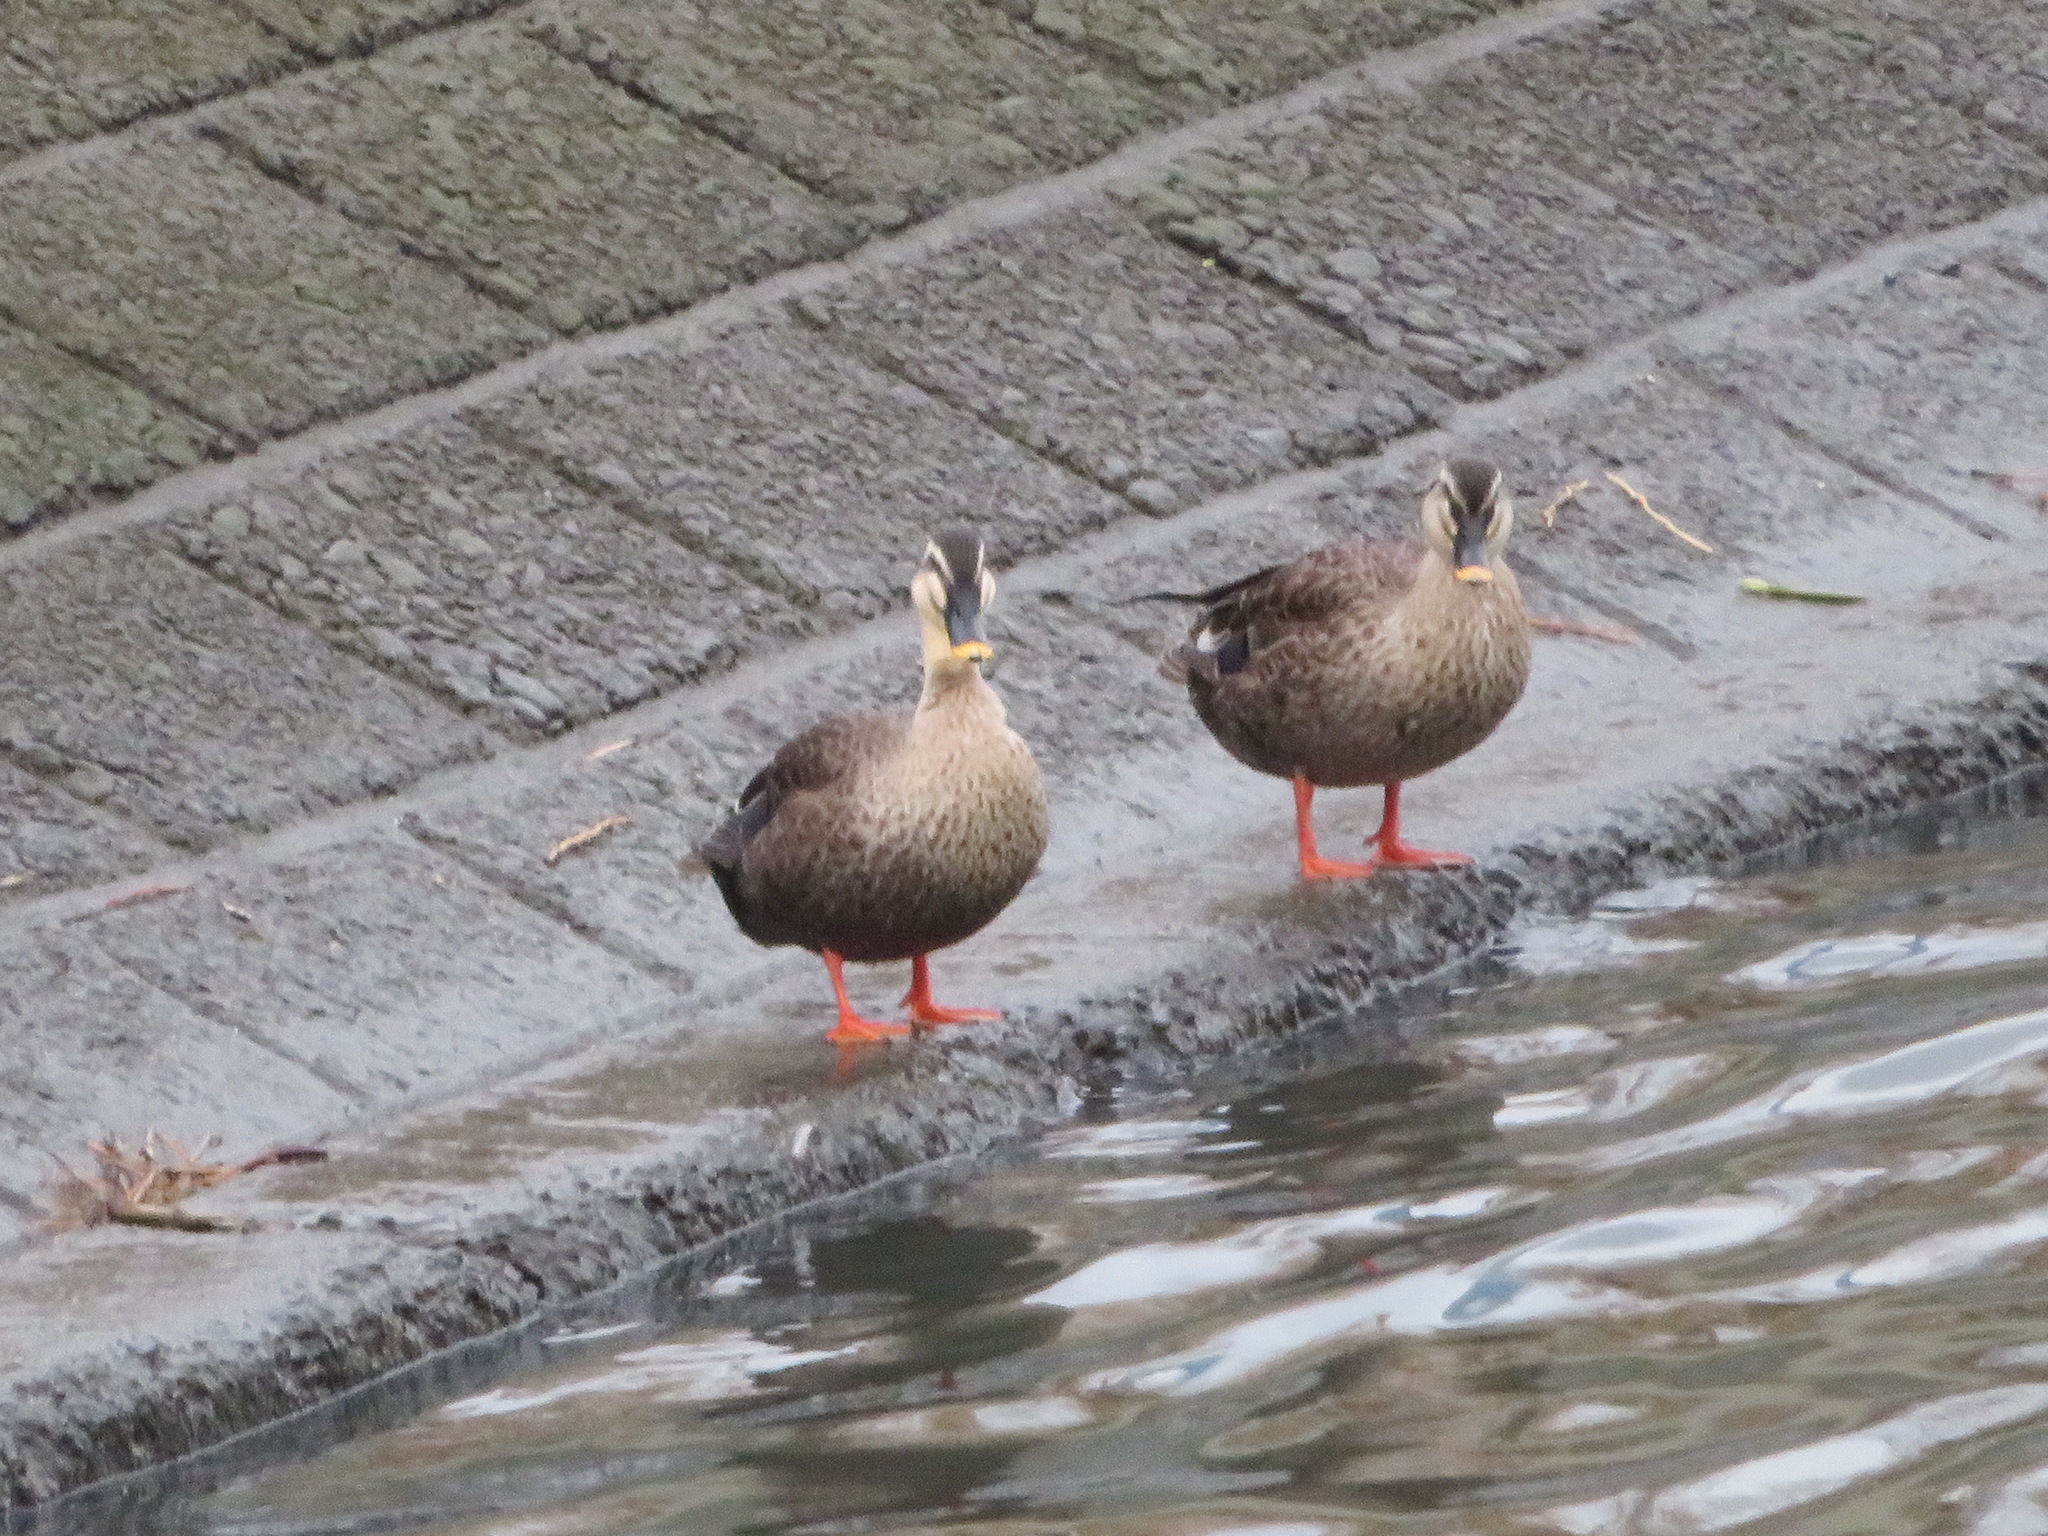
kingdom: Animalia
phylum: Chordata
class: Aves
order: Anseriformes
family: Anatidae
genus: Anas
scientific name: Anas zonorhyncha
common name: Eastern spot-billed duck
